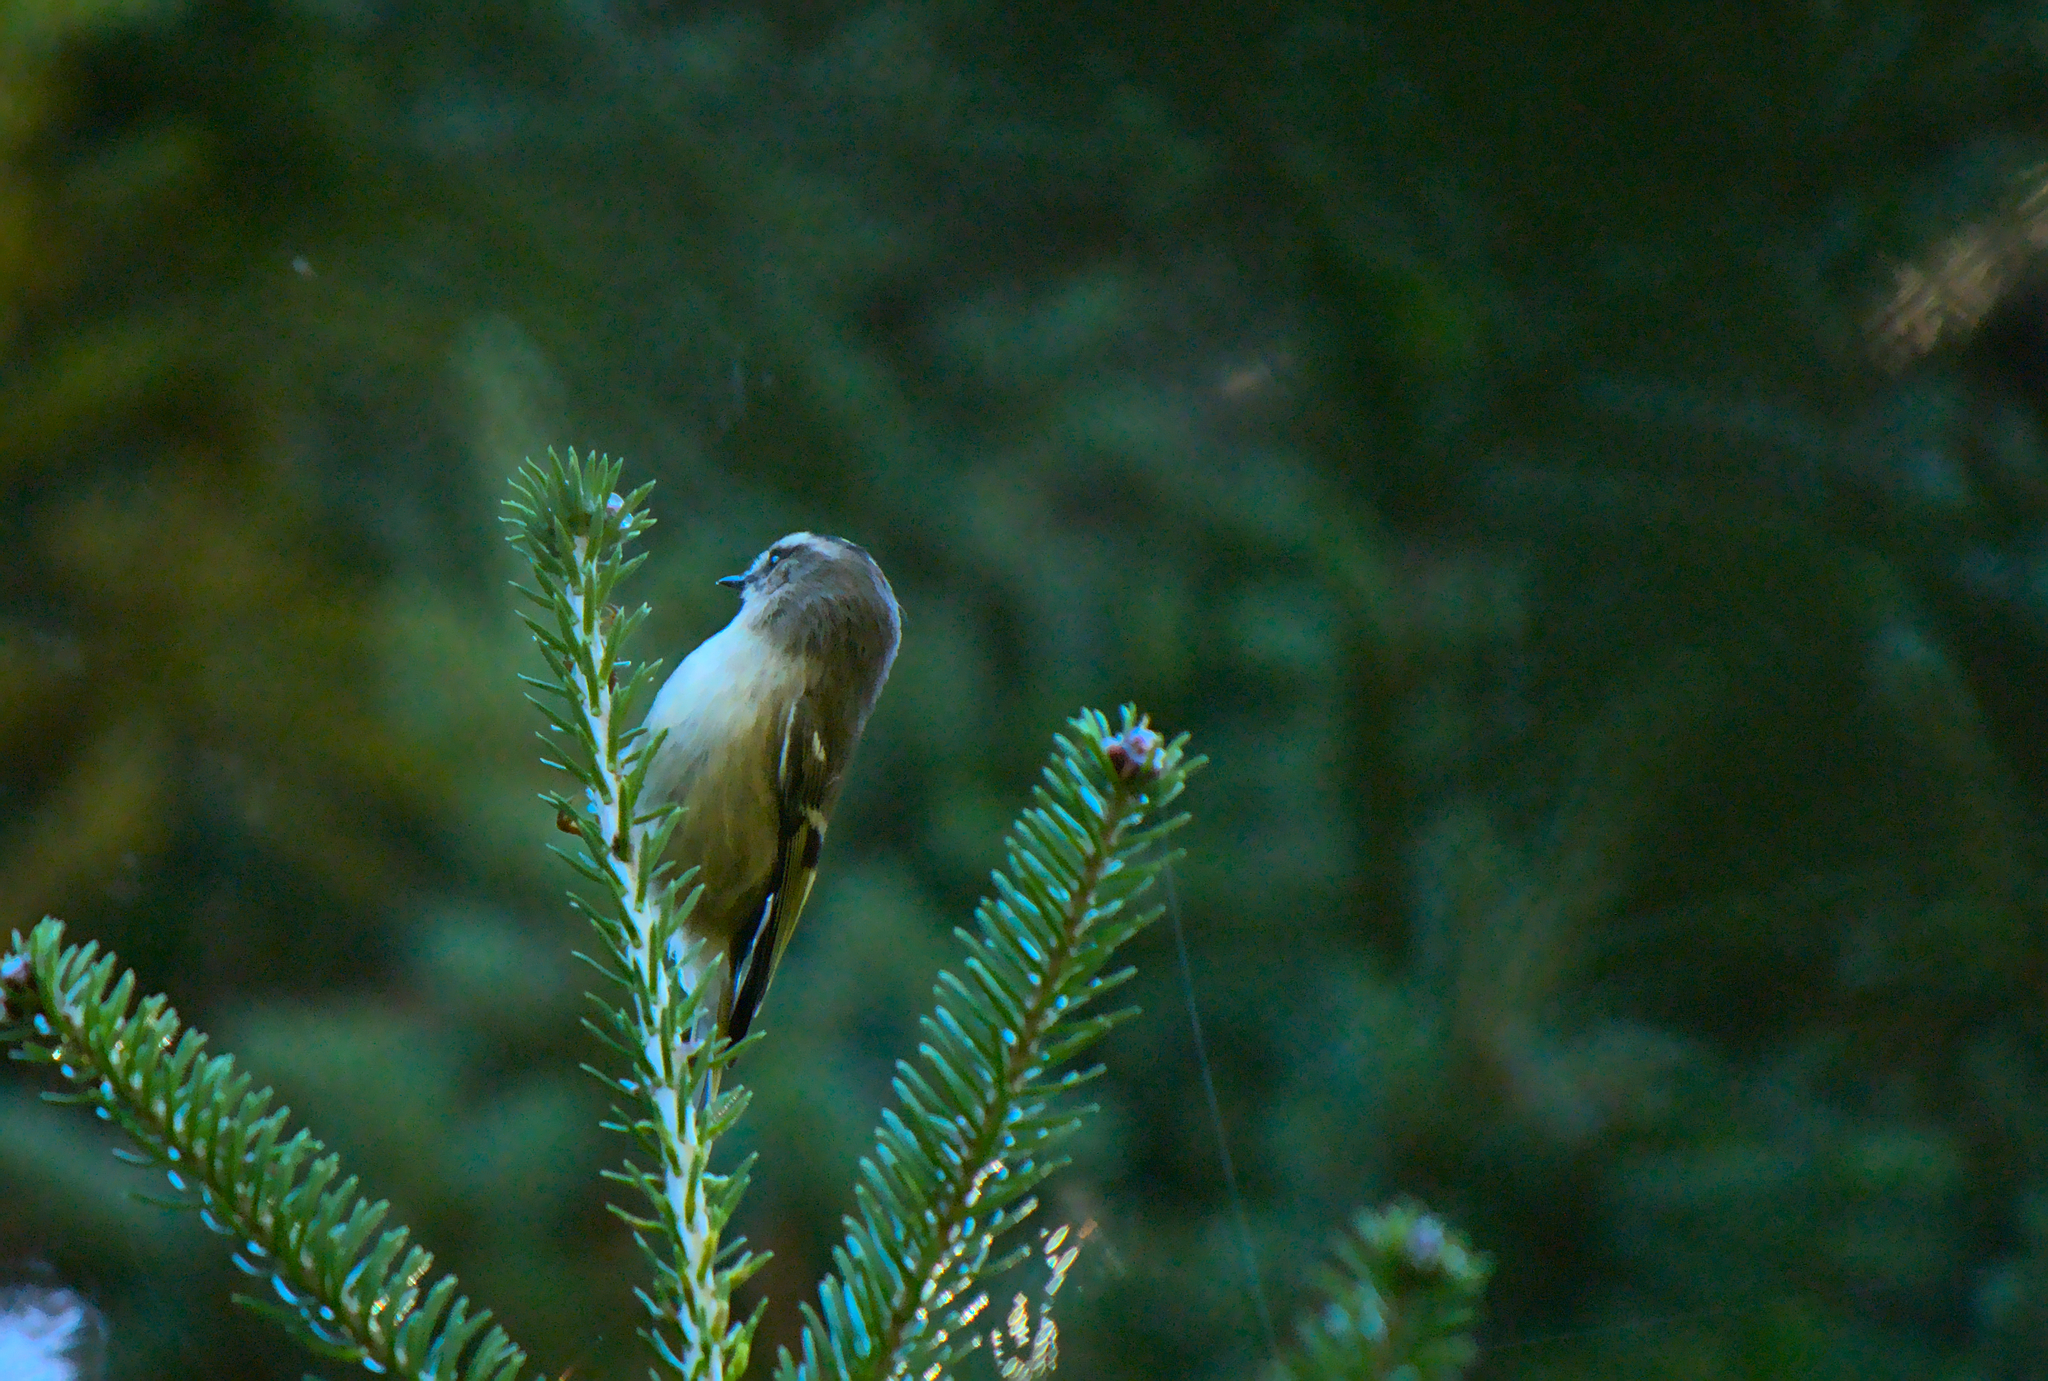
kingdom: Animalia
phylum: Chordata
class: Aves
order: Passeriformes
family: Regulidae
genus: Regulus
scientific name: Regulus satrapa
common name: Golden-crowned kinglet
